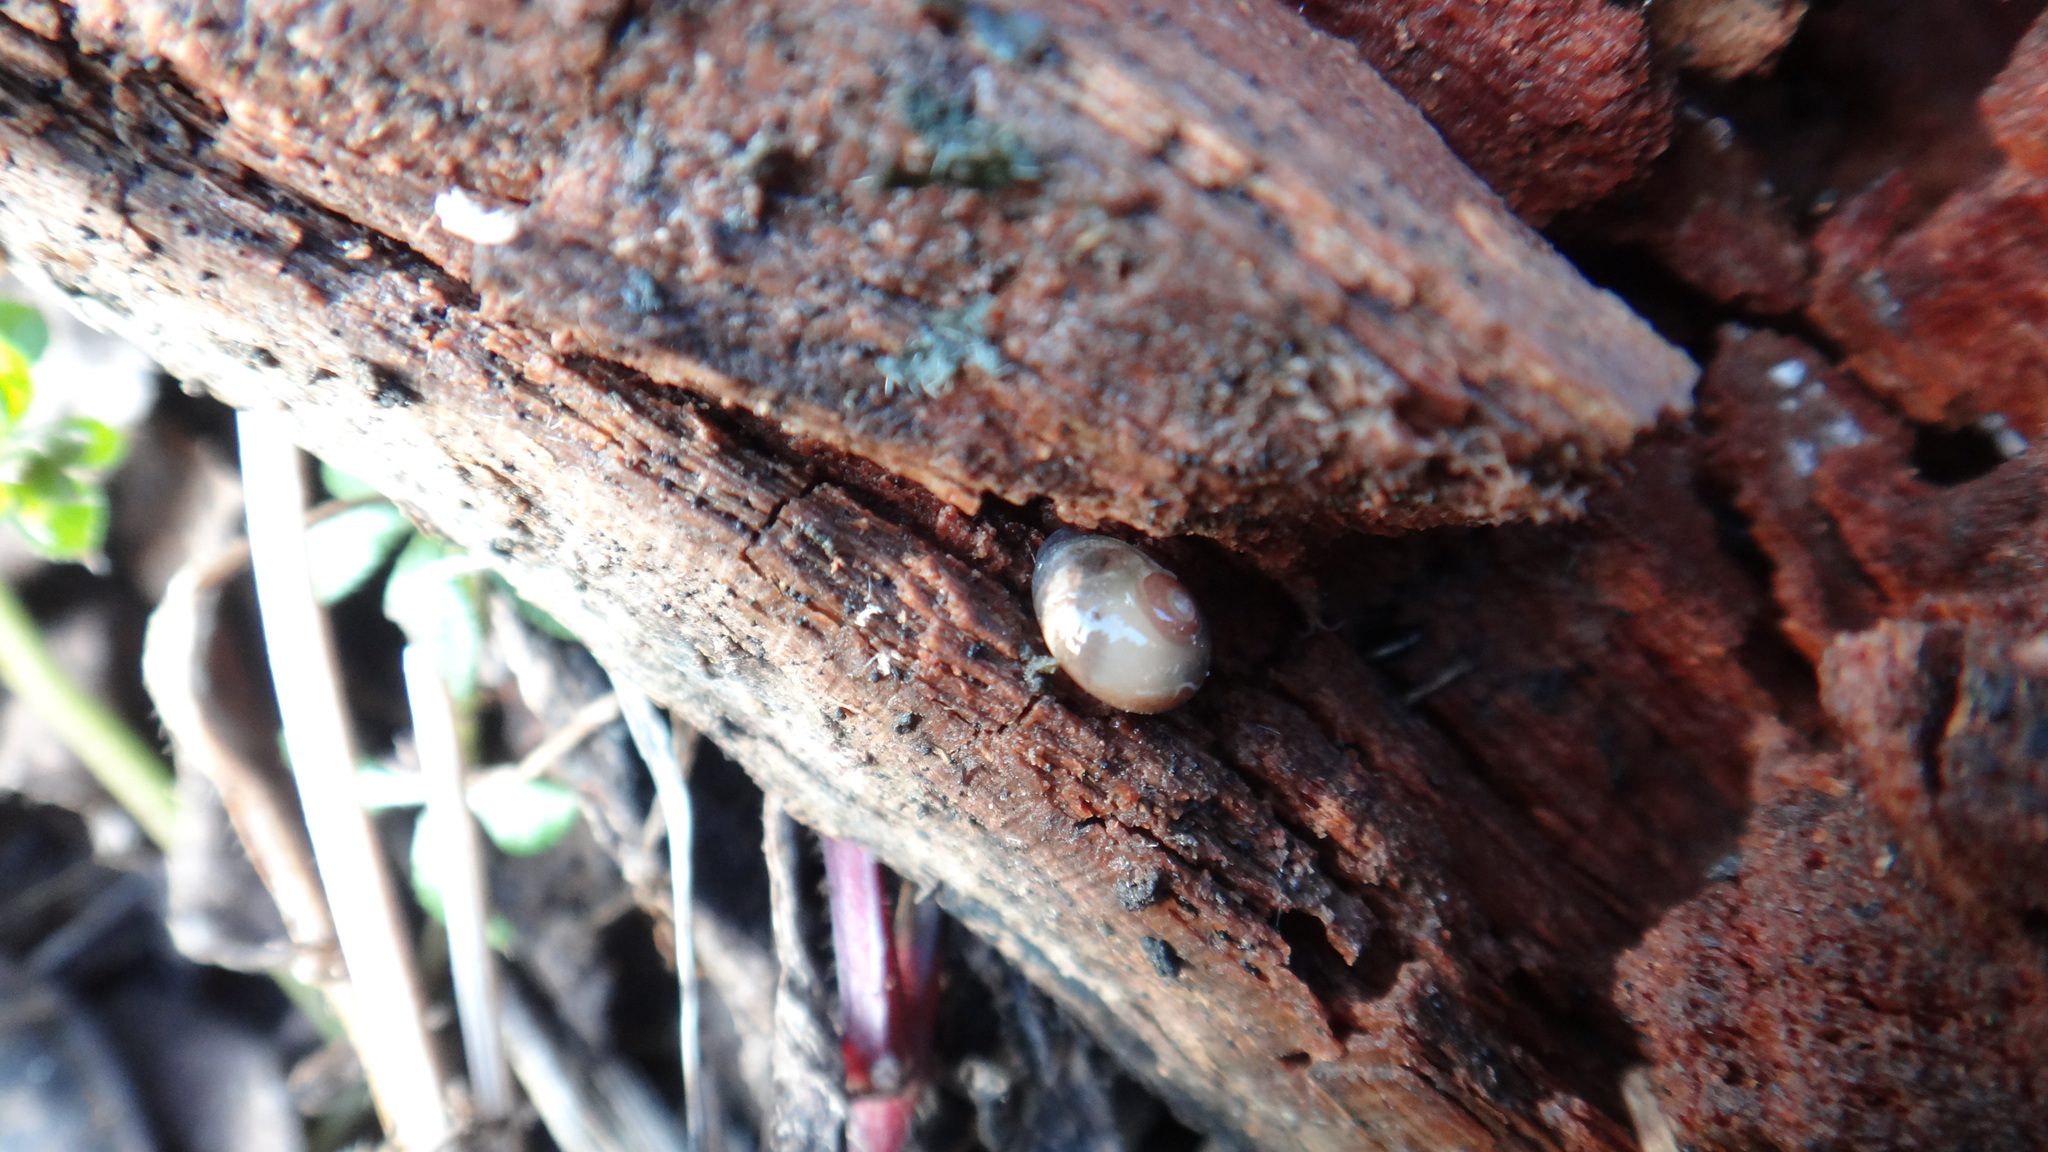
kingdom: Animalia
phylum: Mollusca
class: Gastropoda
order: Stylommatophora
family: Vitrinidae
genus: Vitrina
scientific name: Vitrina pellucida
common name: Pellucid glass snail
